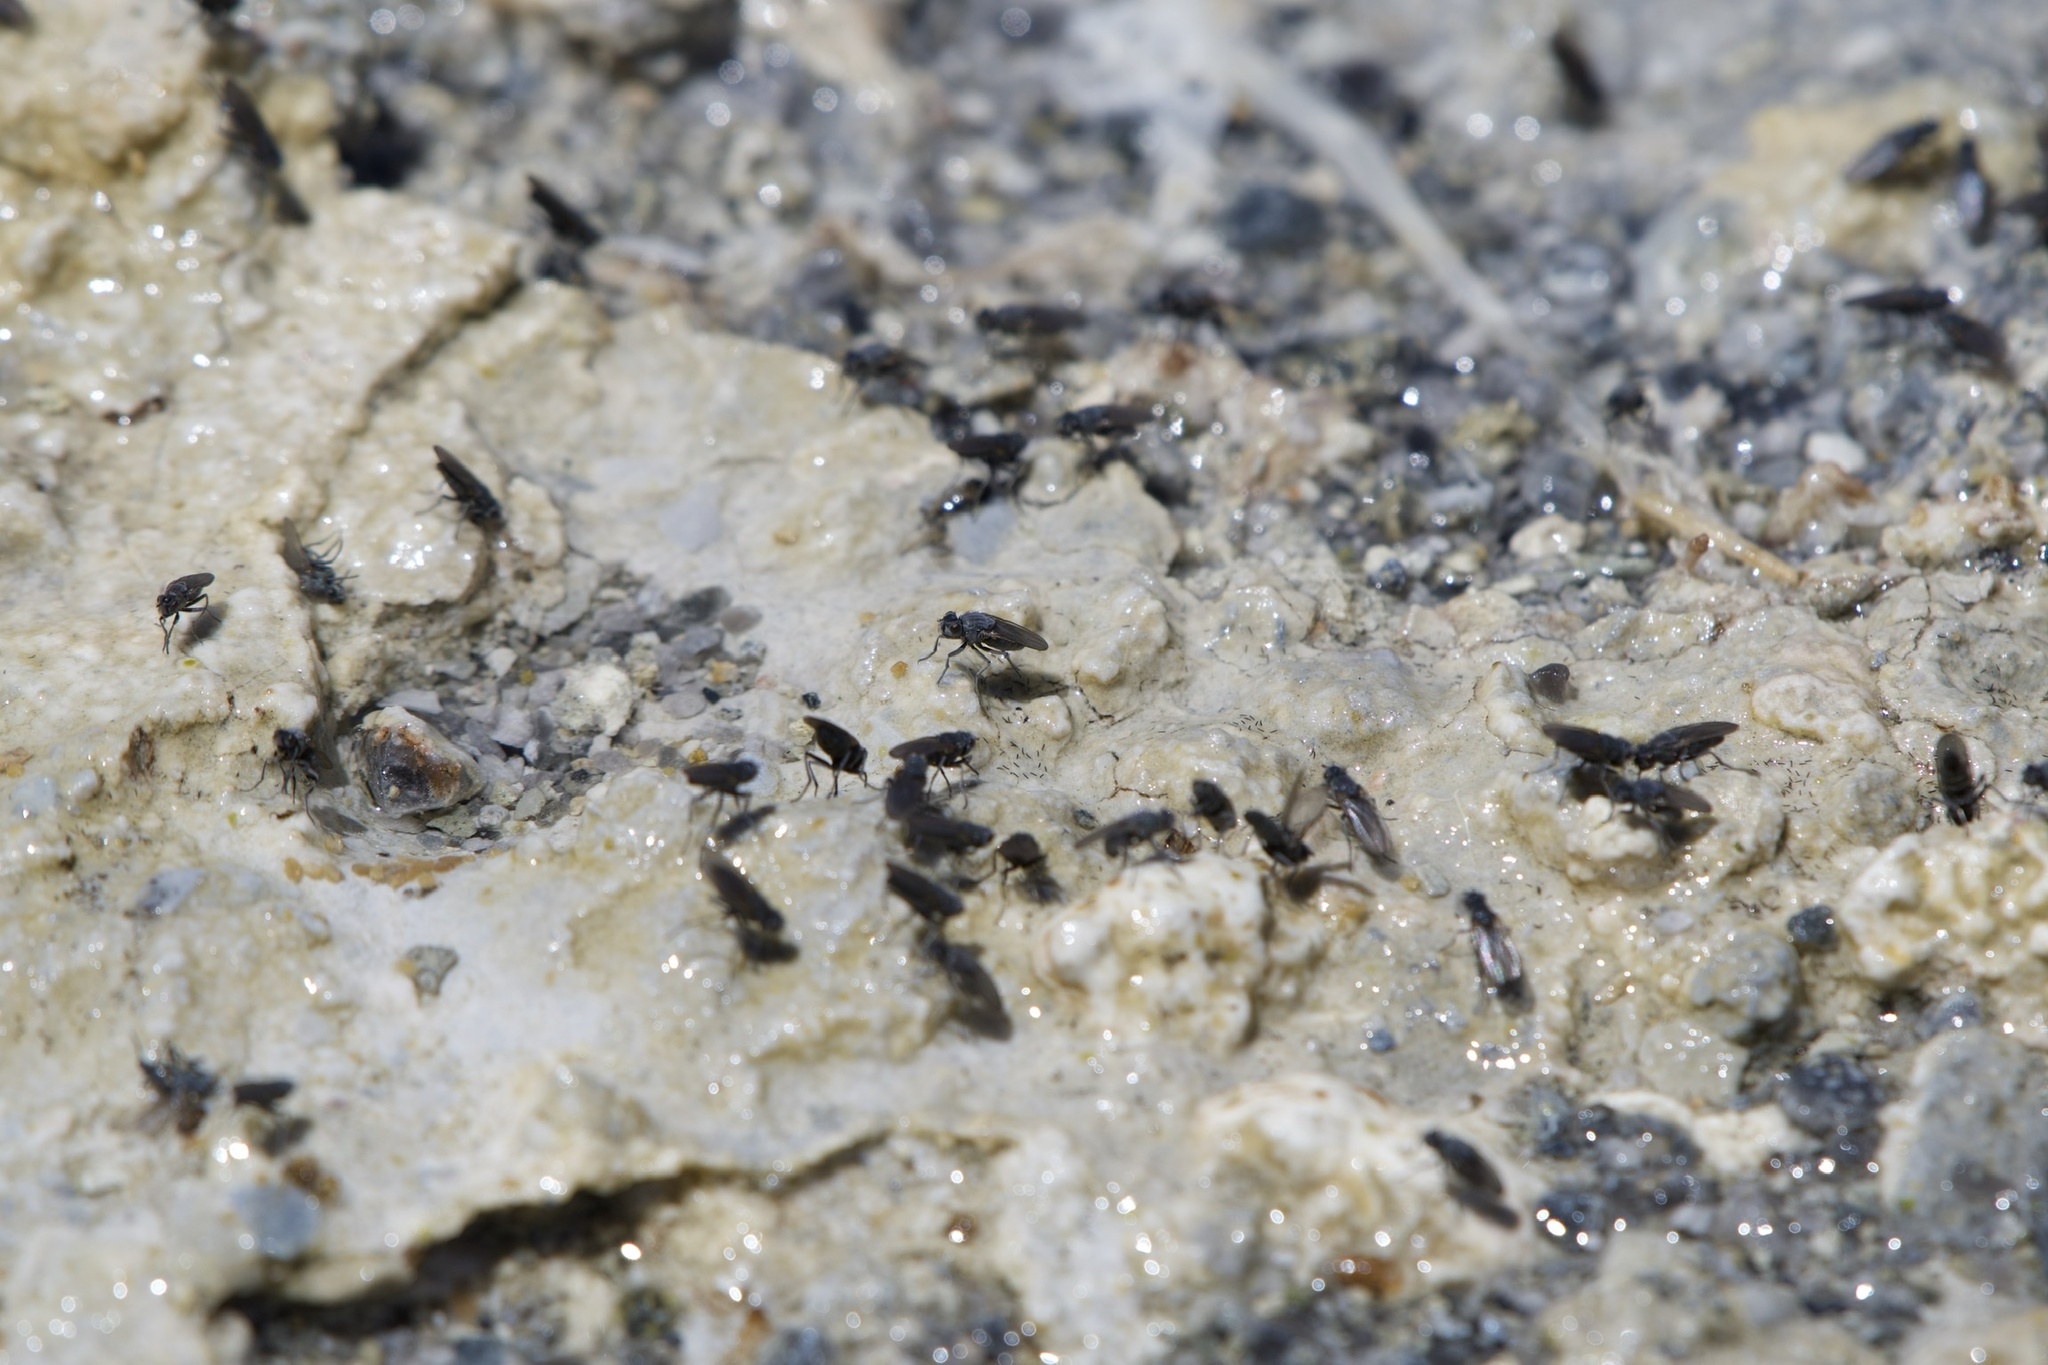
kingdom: Animalia
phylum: Arthropoda
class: Insecta
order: Diptera
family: Ephydridae
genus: Cirrula
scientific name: Cirrula hians
